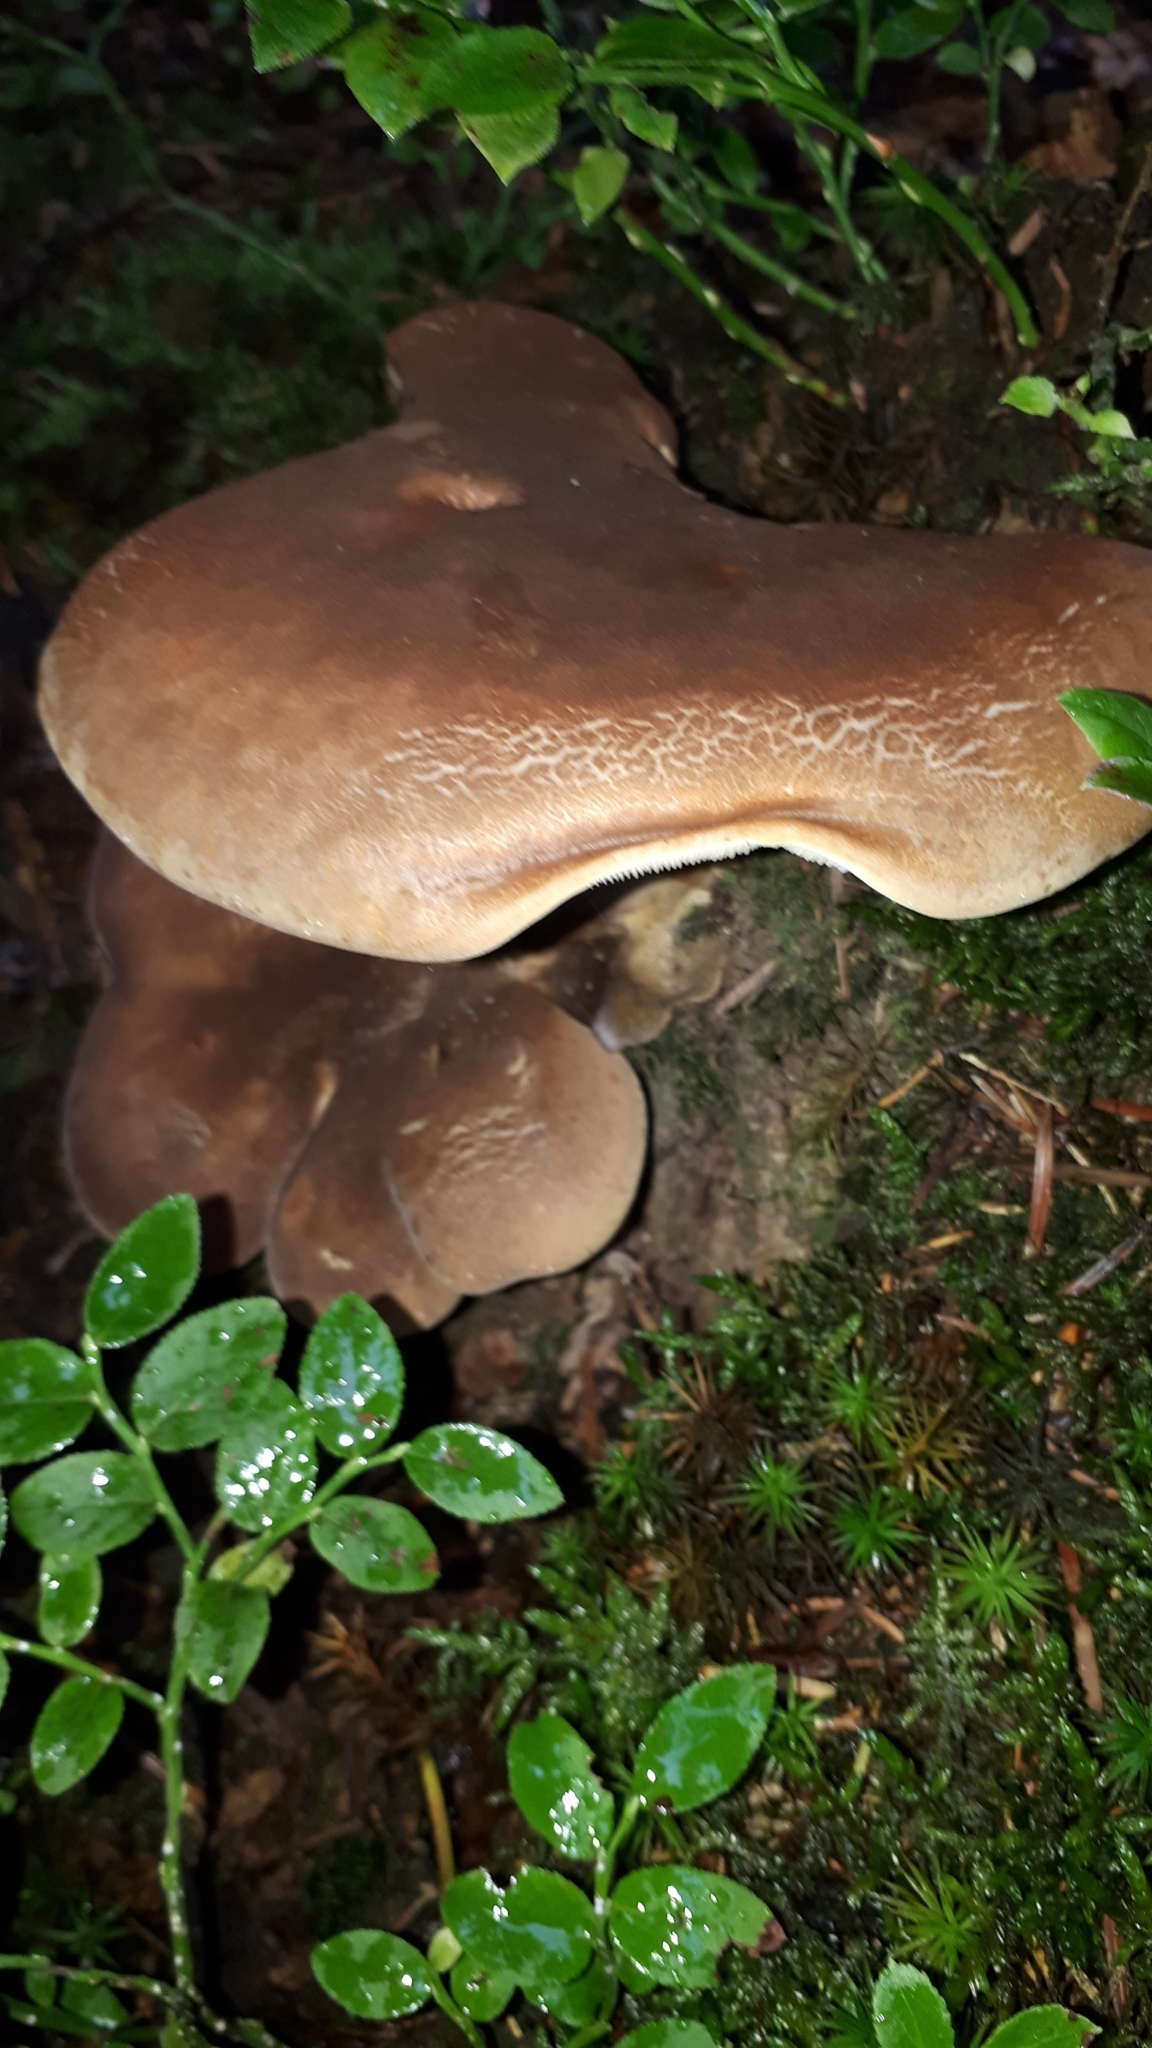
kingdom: Fungi
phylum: Basidiomycota
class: Agaricomycetes
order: Boletales
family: Tapinellaceae
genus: Tapinella
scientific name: Tapinella atrotomentosa
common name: Velvet rollrim
